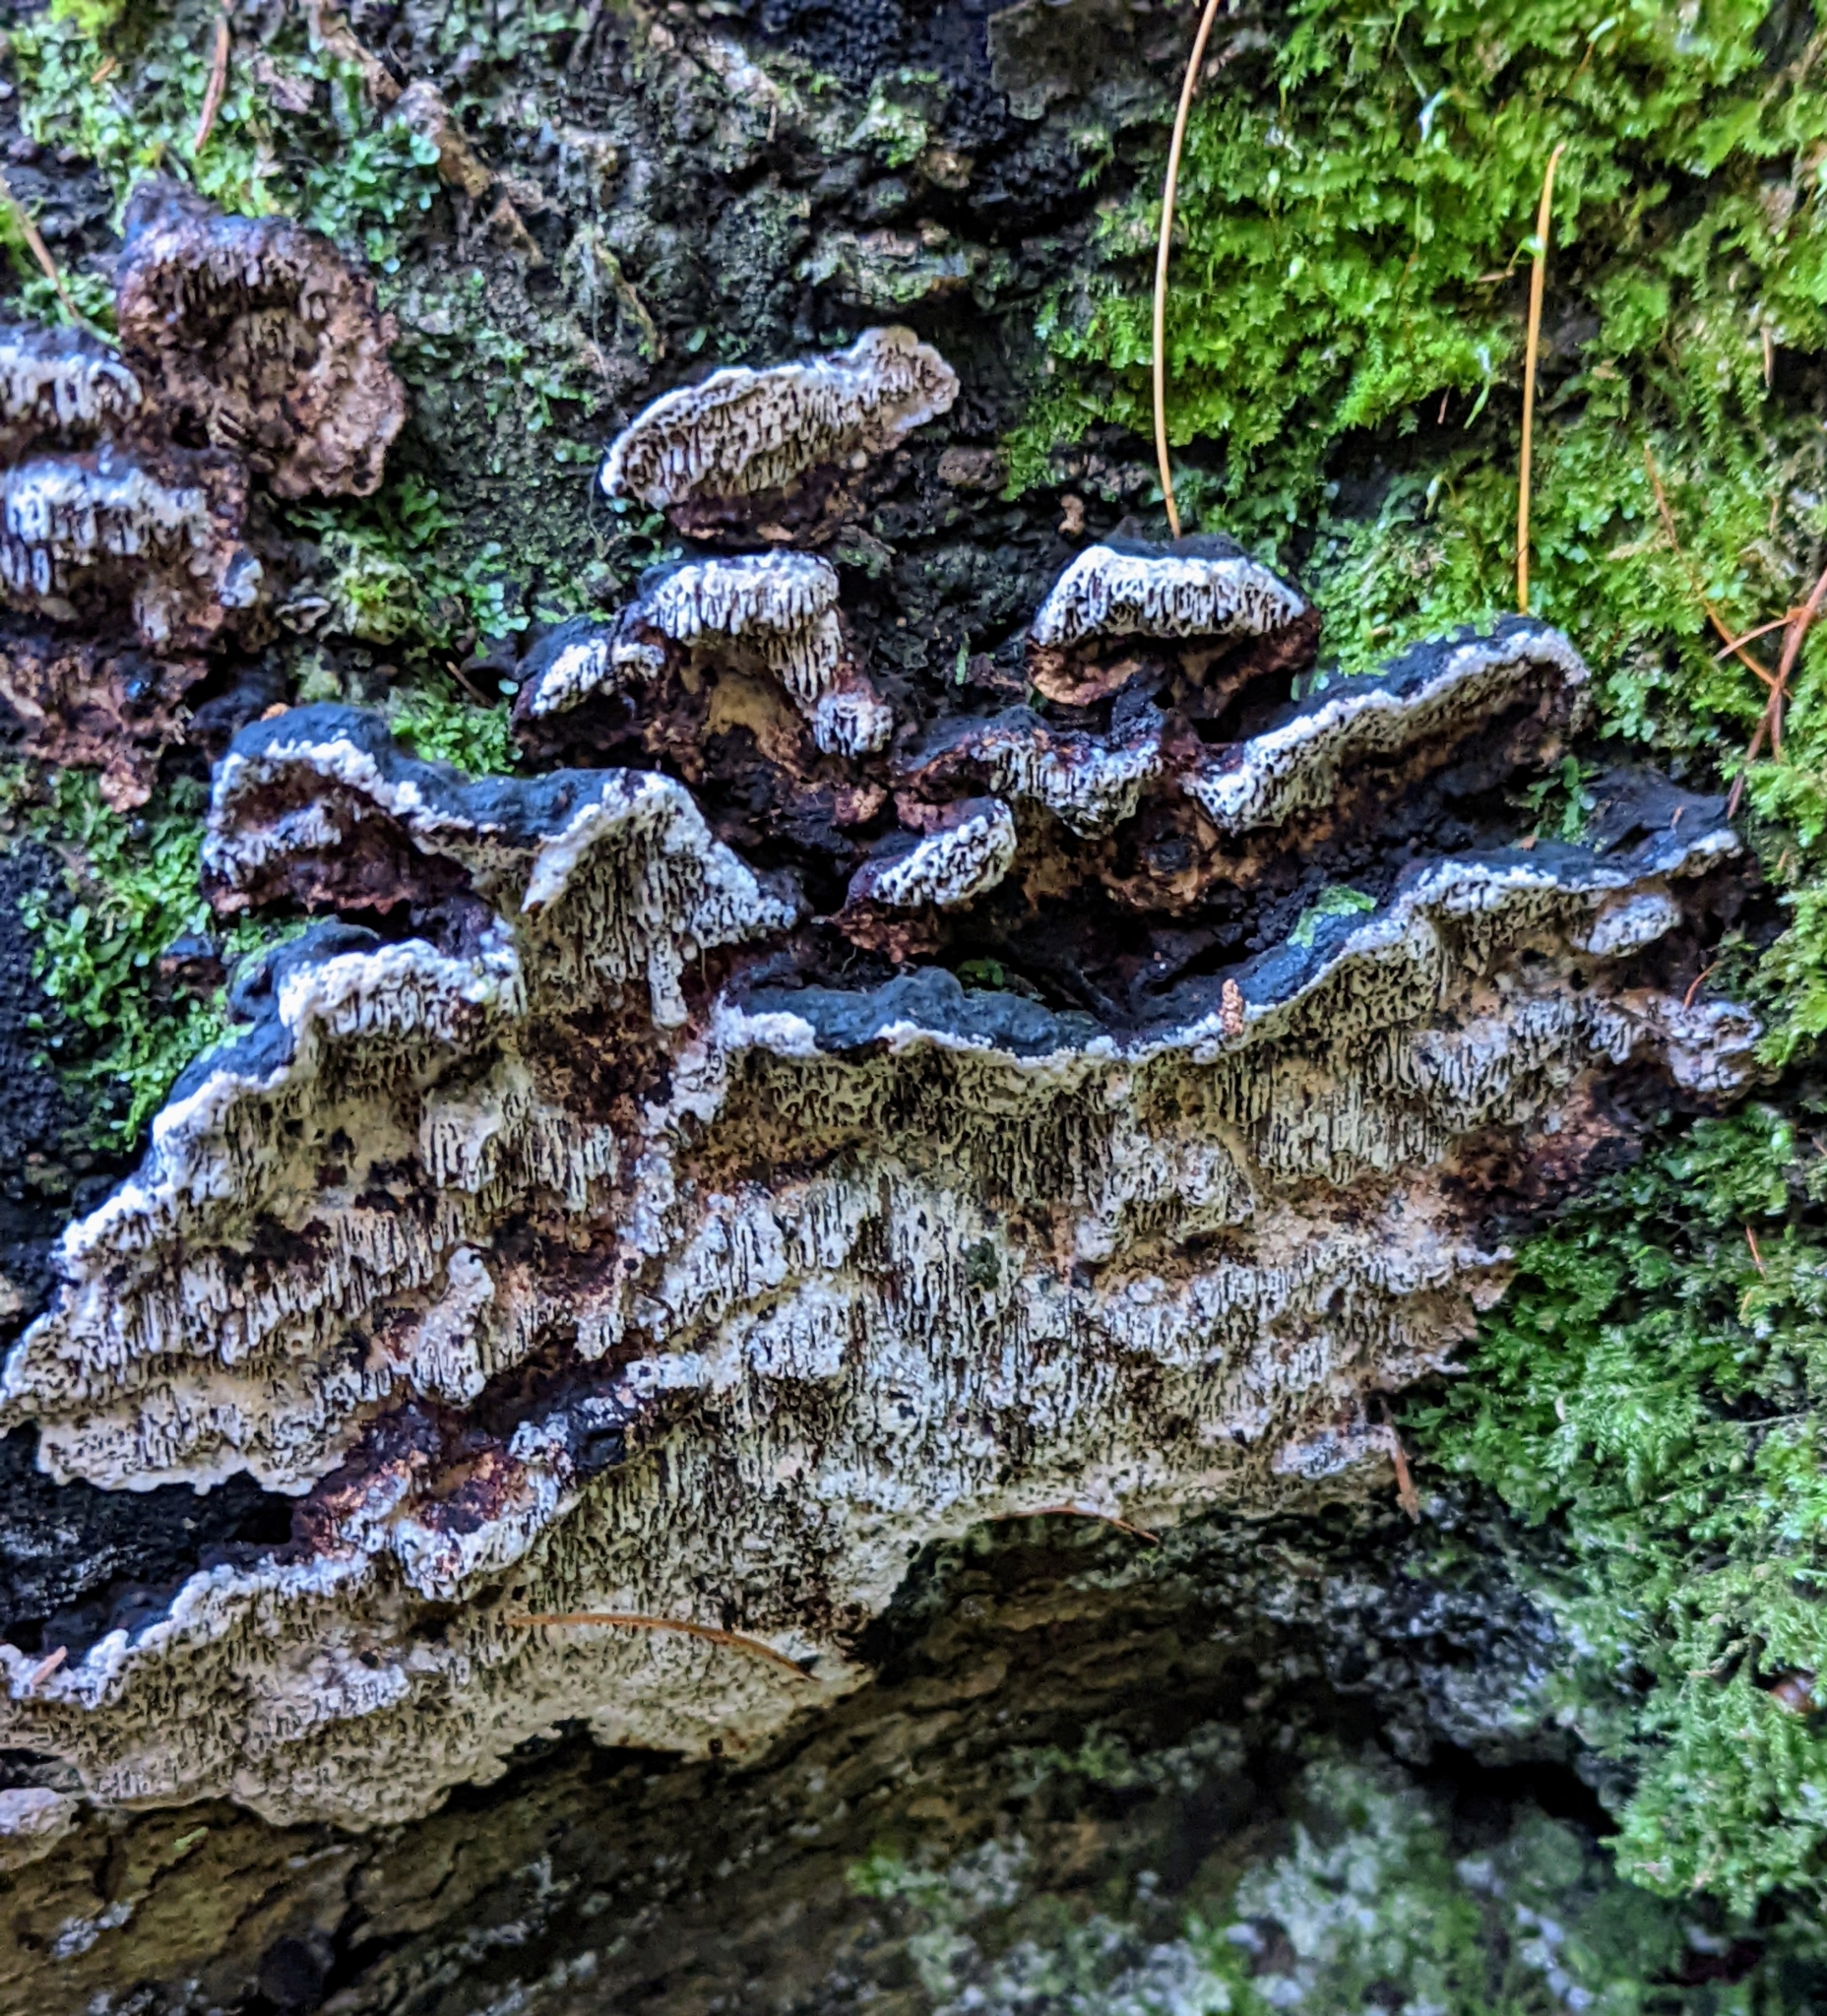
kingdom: Fungi
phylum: Basidiomycota
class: Agaricomycetes
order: Polyporales
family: Polyporaceae
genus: Podofomes
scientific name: Podofomes mollis
